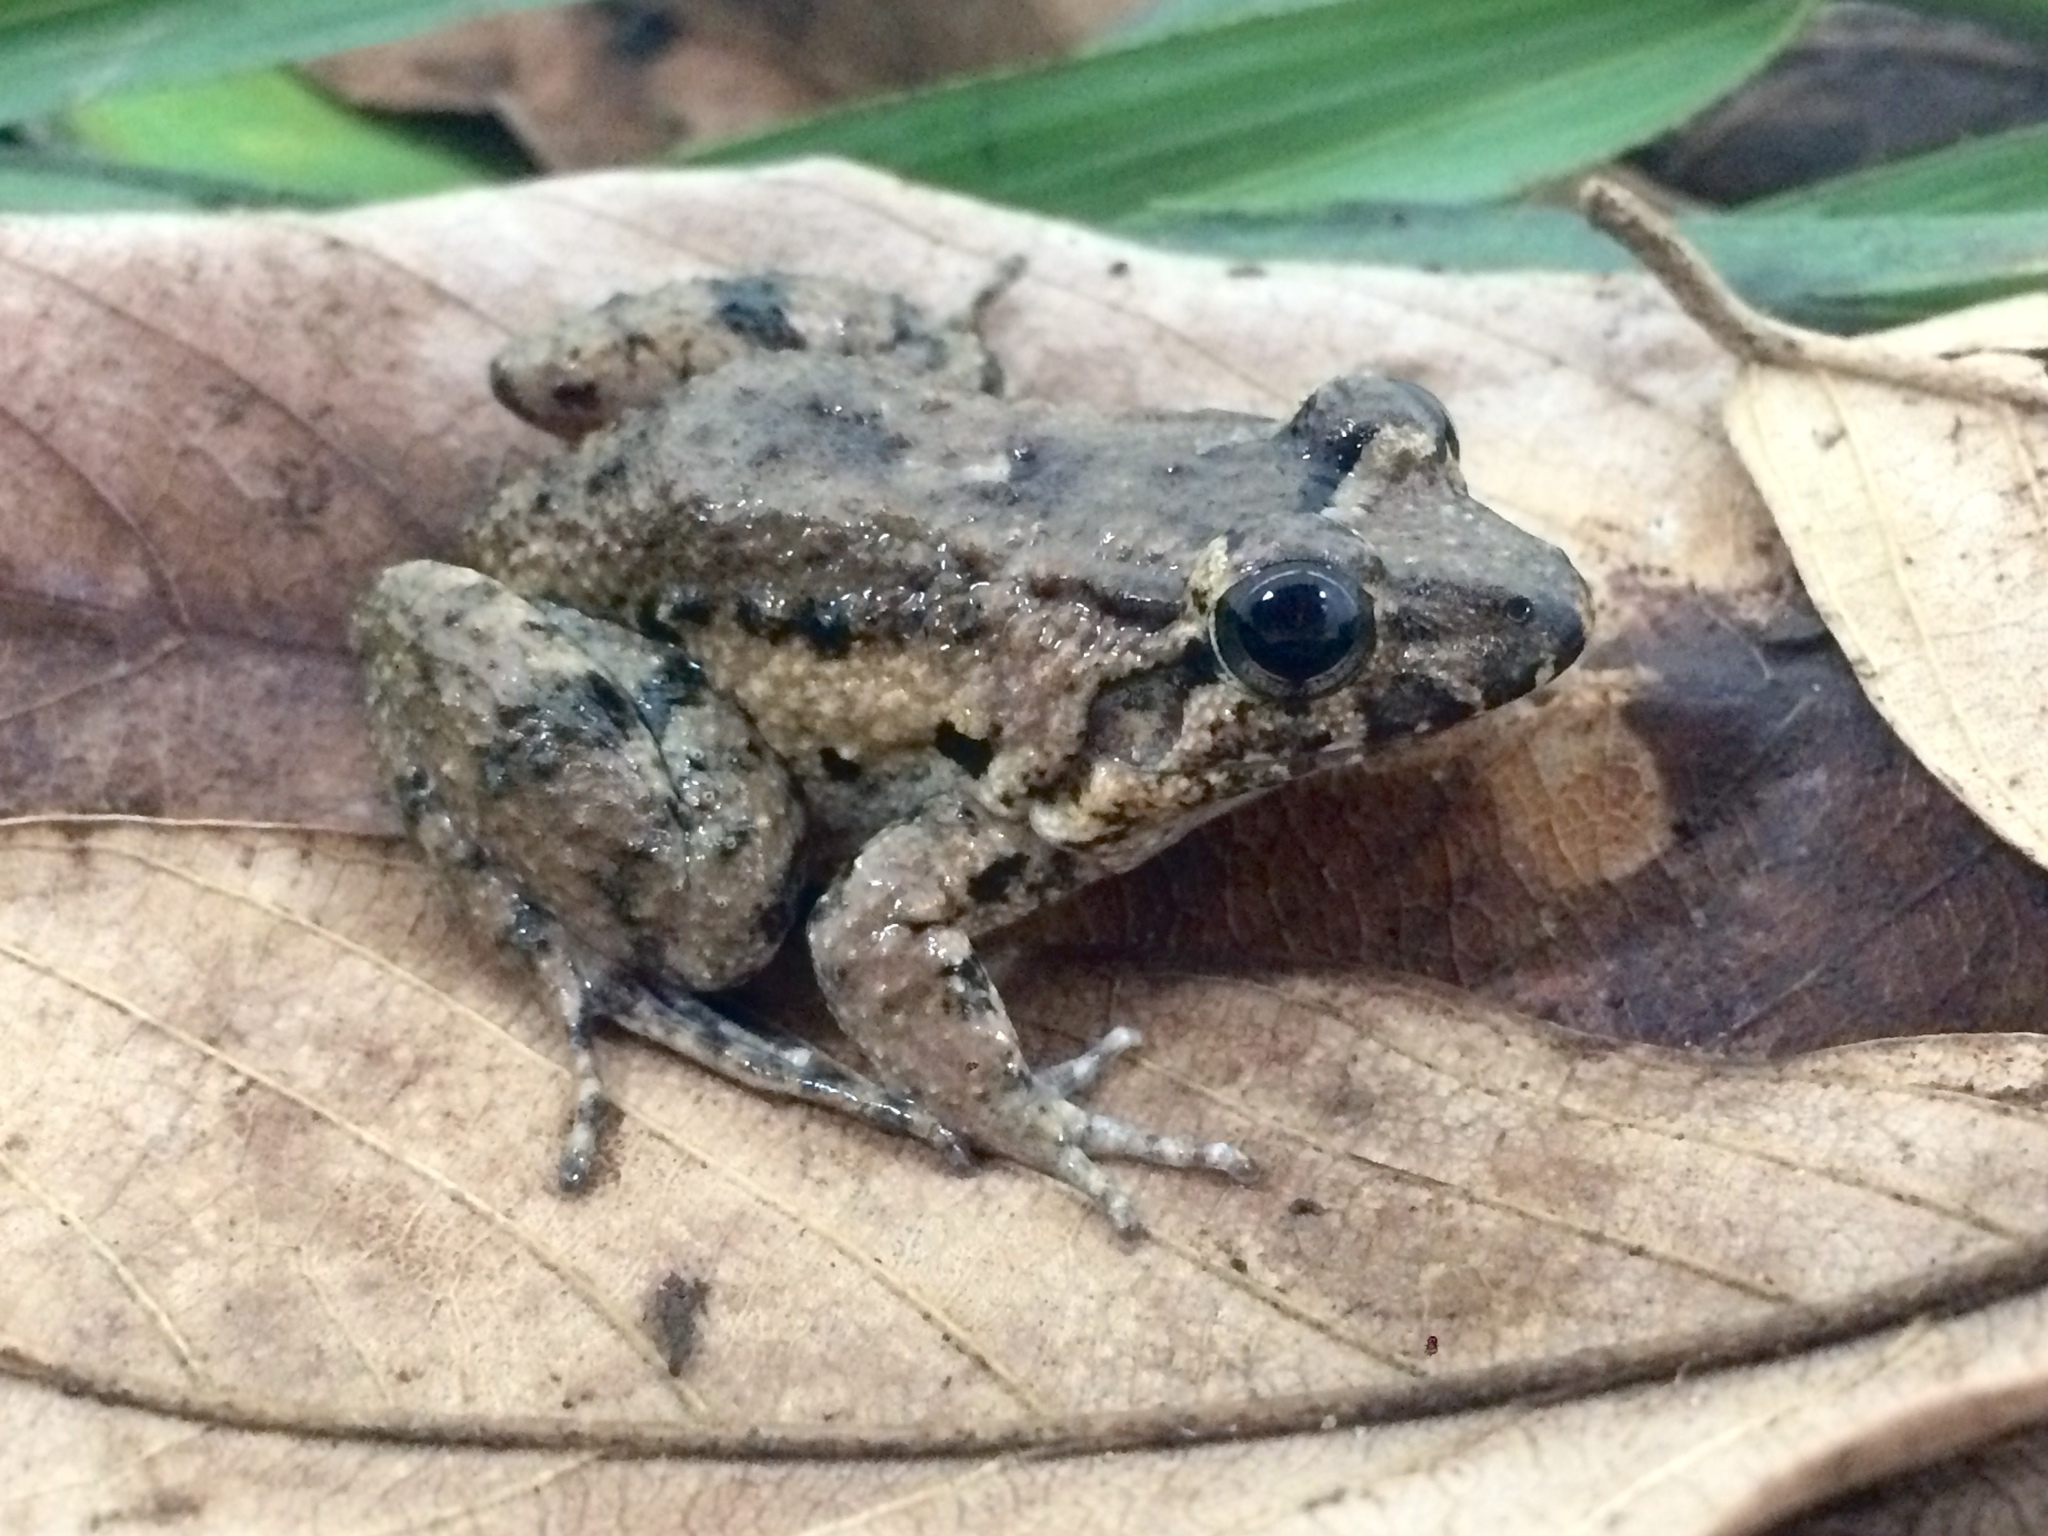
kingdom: Animalia
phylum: Chordata
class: Amphibia
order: Anura
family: Leptodactylidae
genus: Leptodactylus
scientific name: Leptodactylus natalensis
